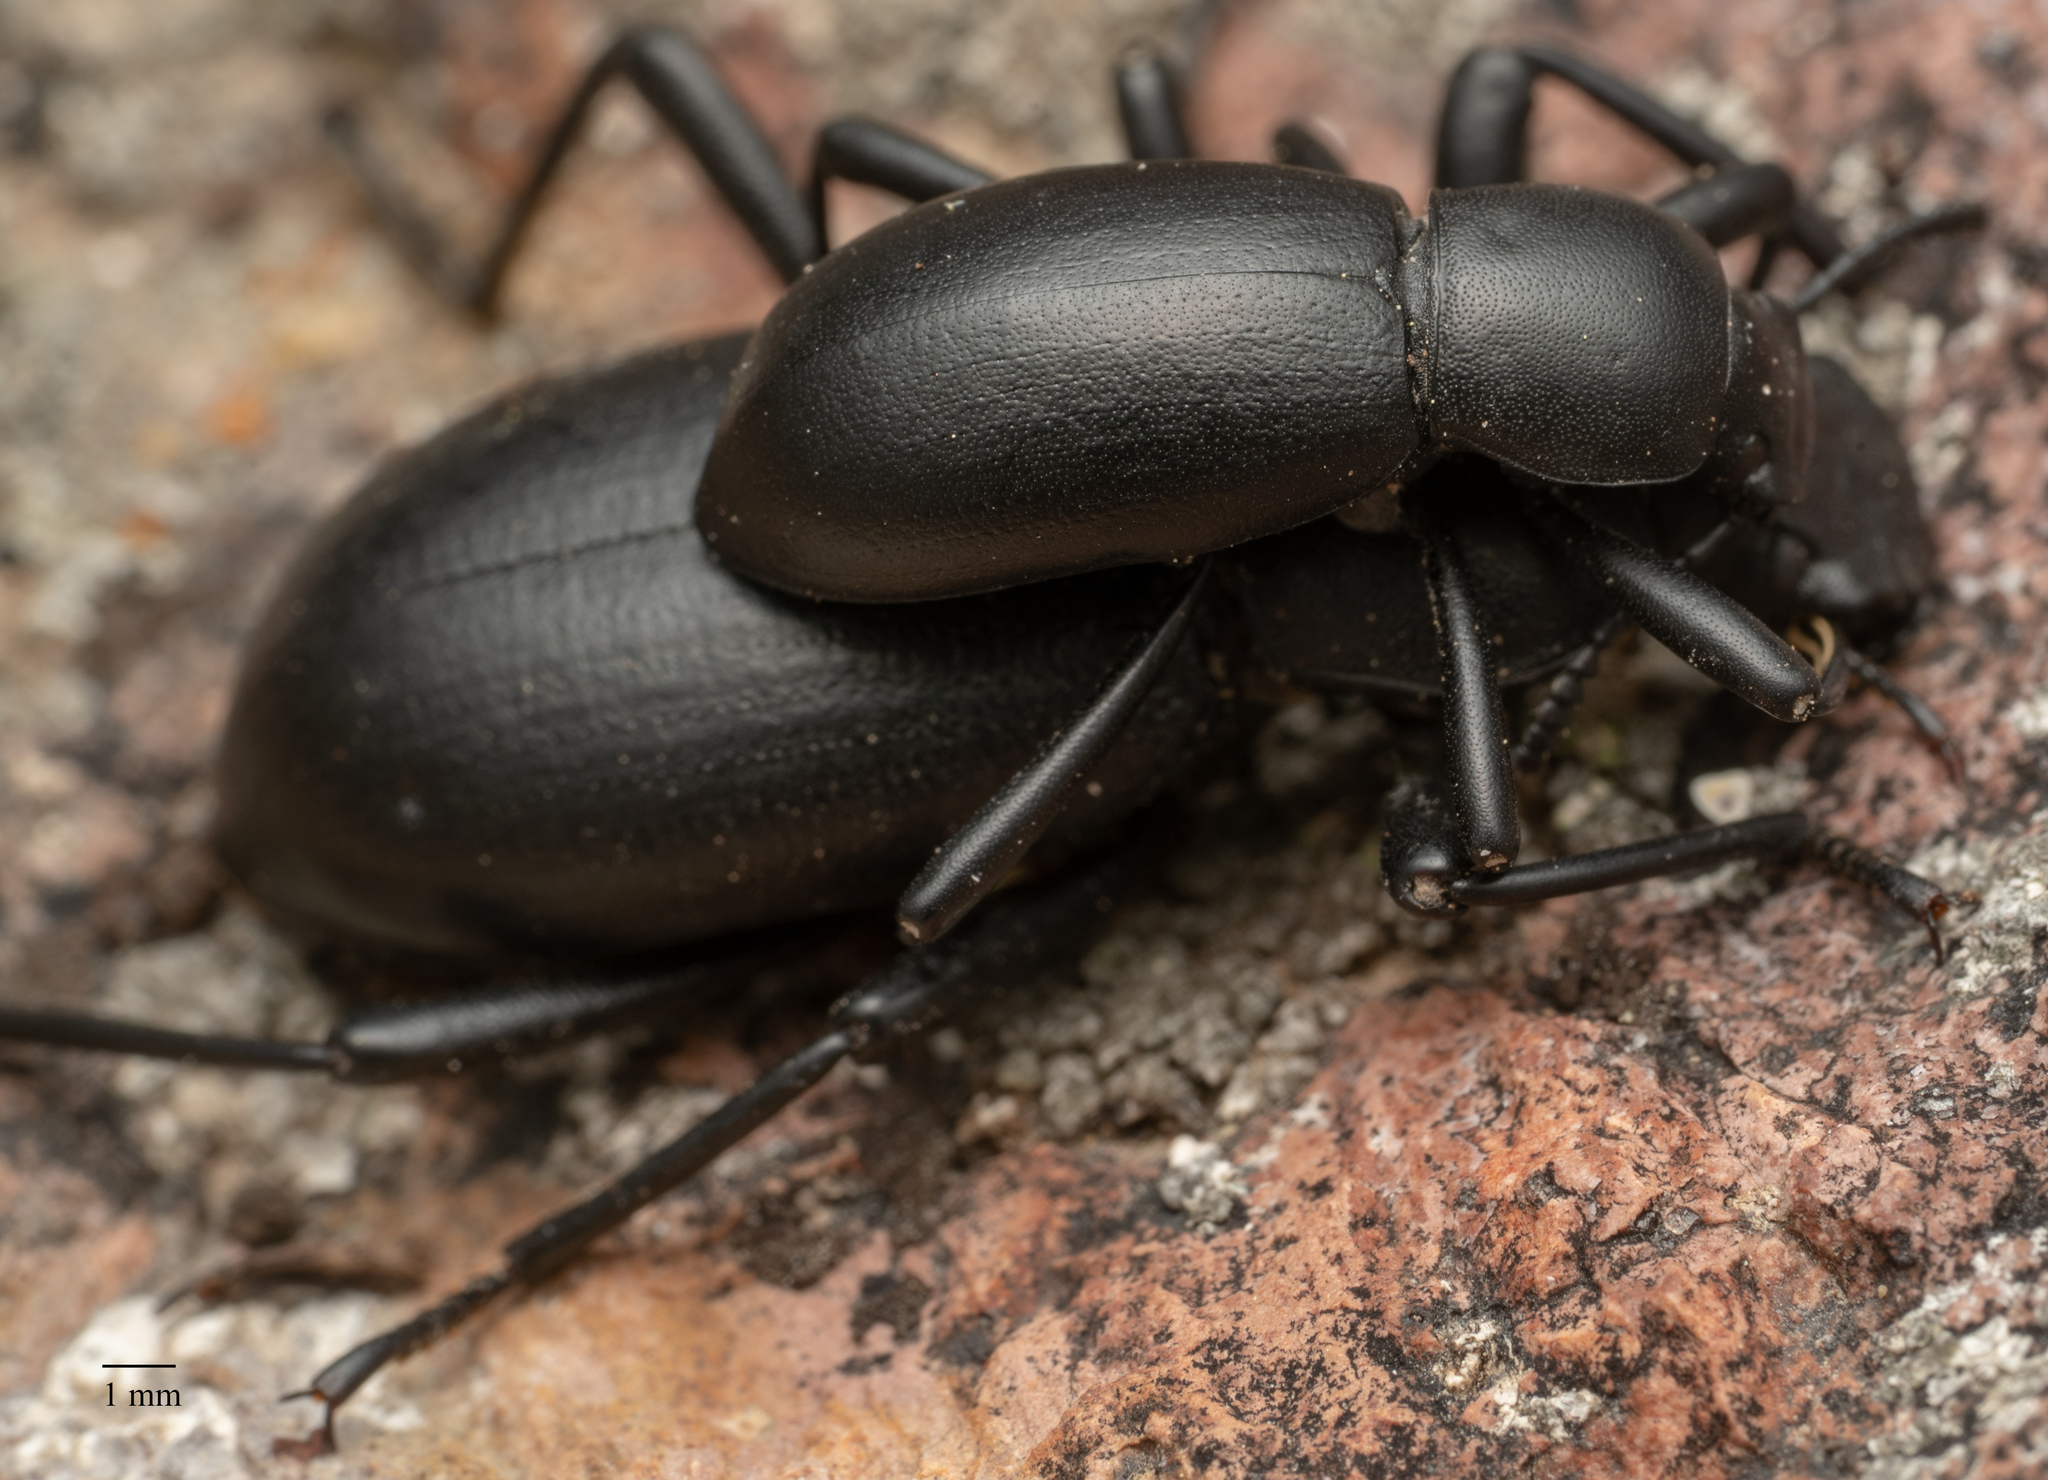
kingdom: Animalia
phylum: Arthropoda
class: Insecta
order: Coleoptera
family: Tenebrionidae
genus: Coelocnemis
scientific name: Coelocnemis punctata
